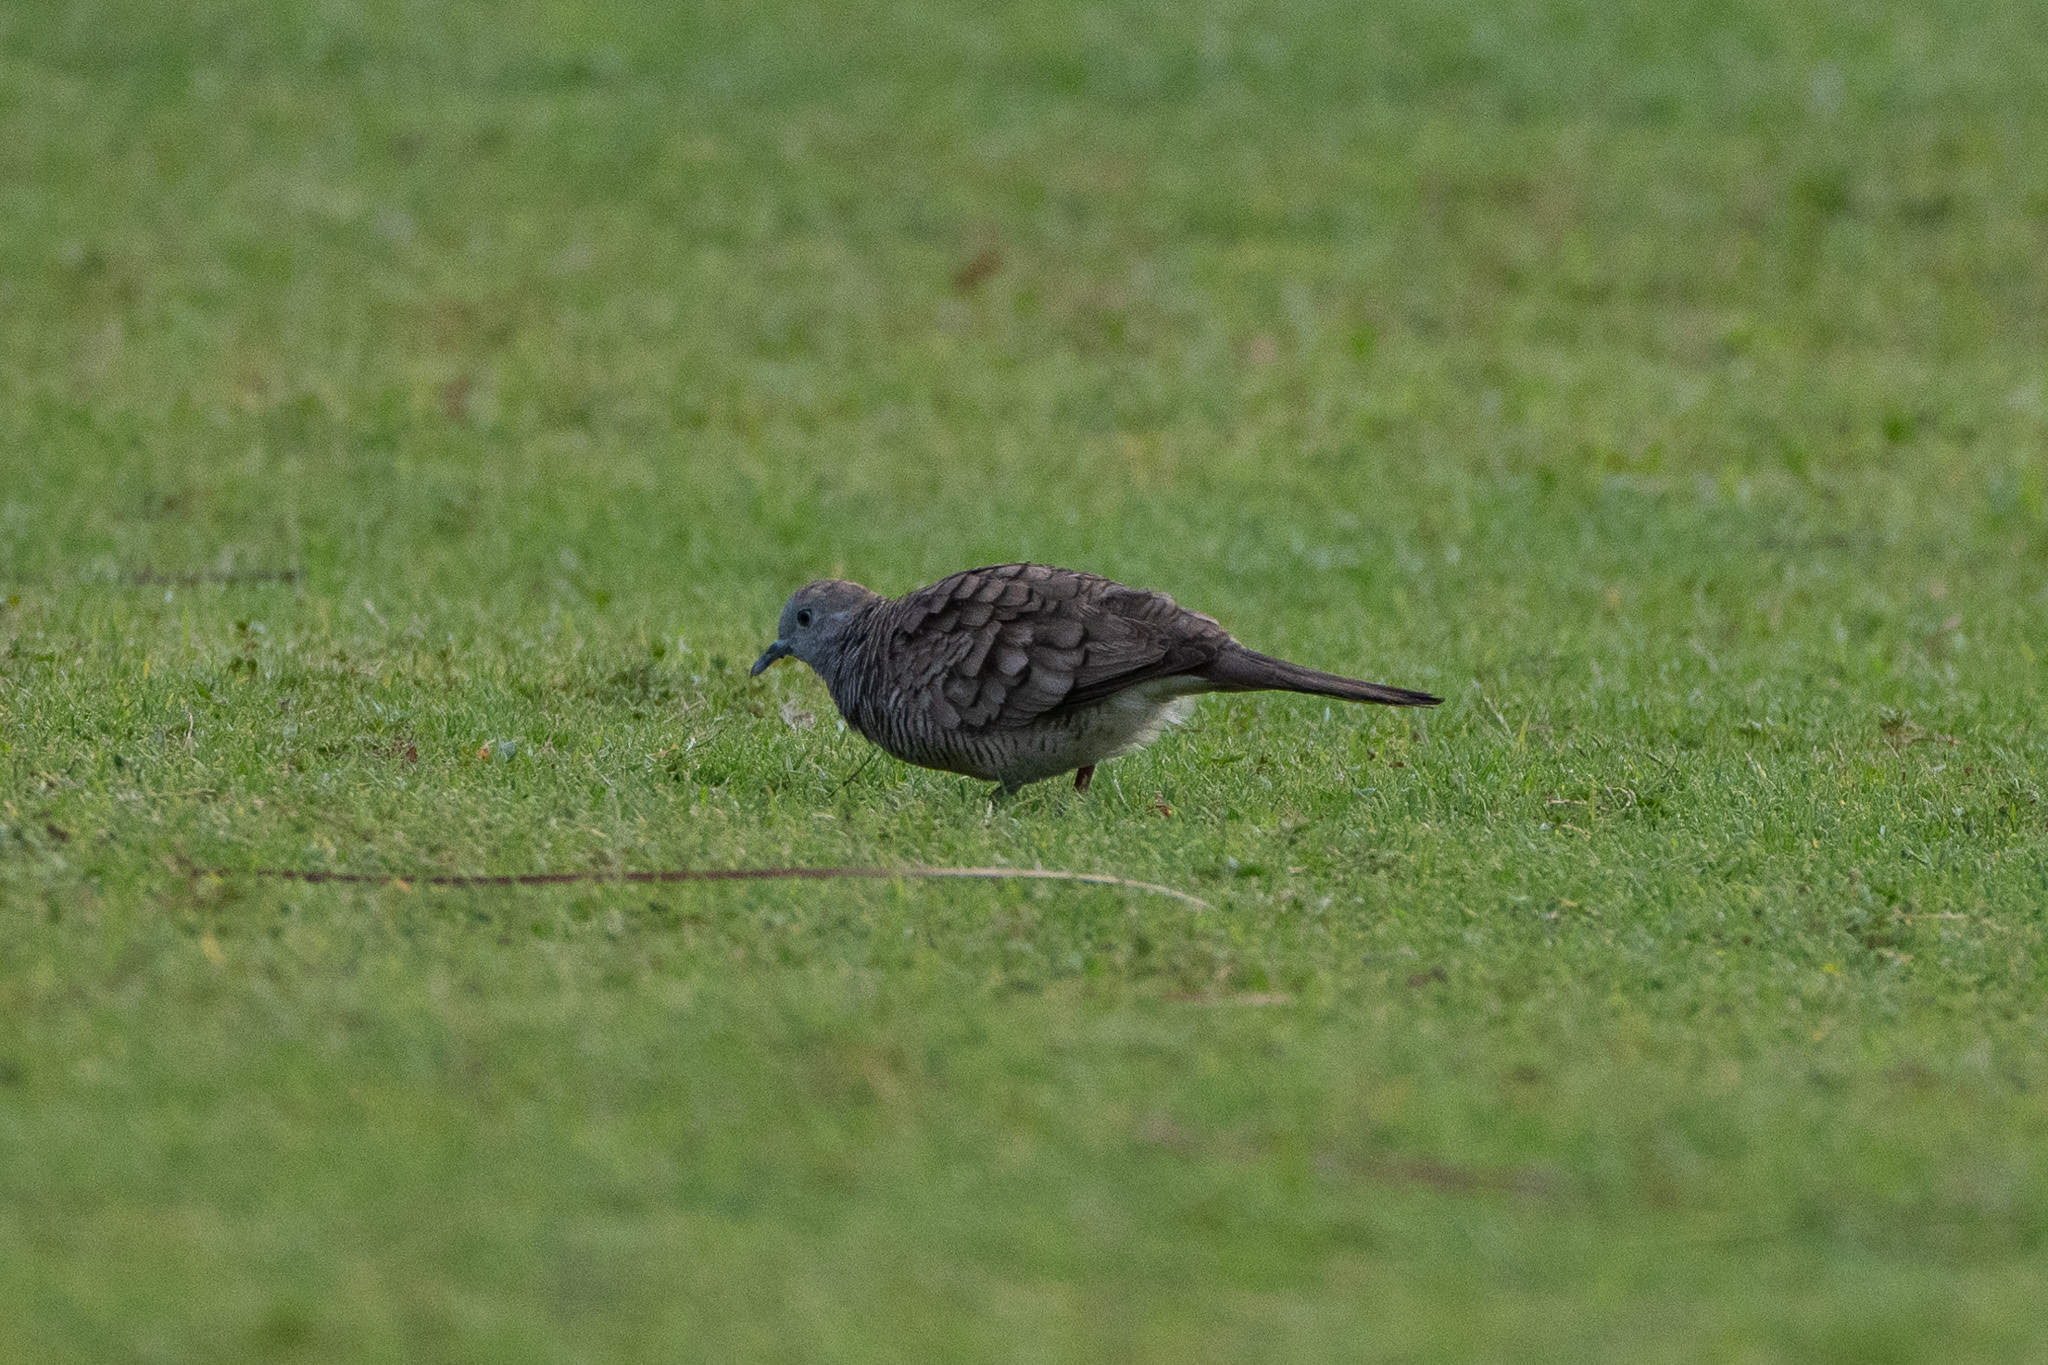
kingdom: Animalia
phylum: Chordata
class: Aves
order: Columbiformes
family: Columbidae
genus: Geopelia
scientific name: Geopelia striata
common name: Zebra dove
